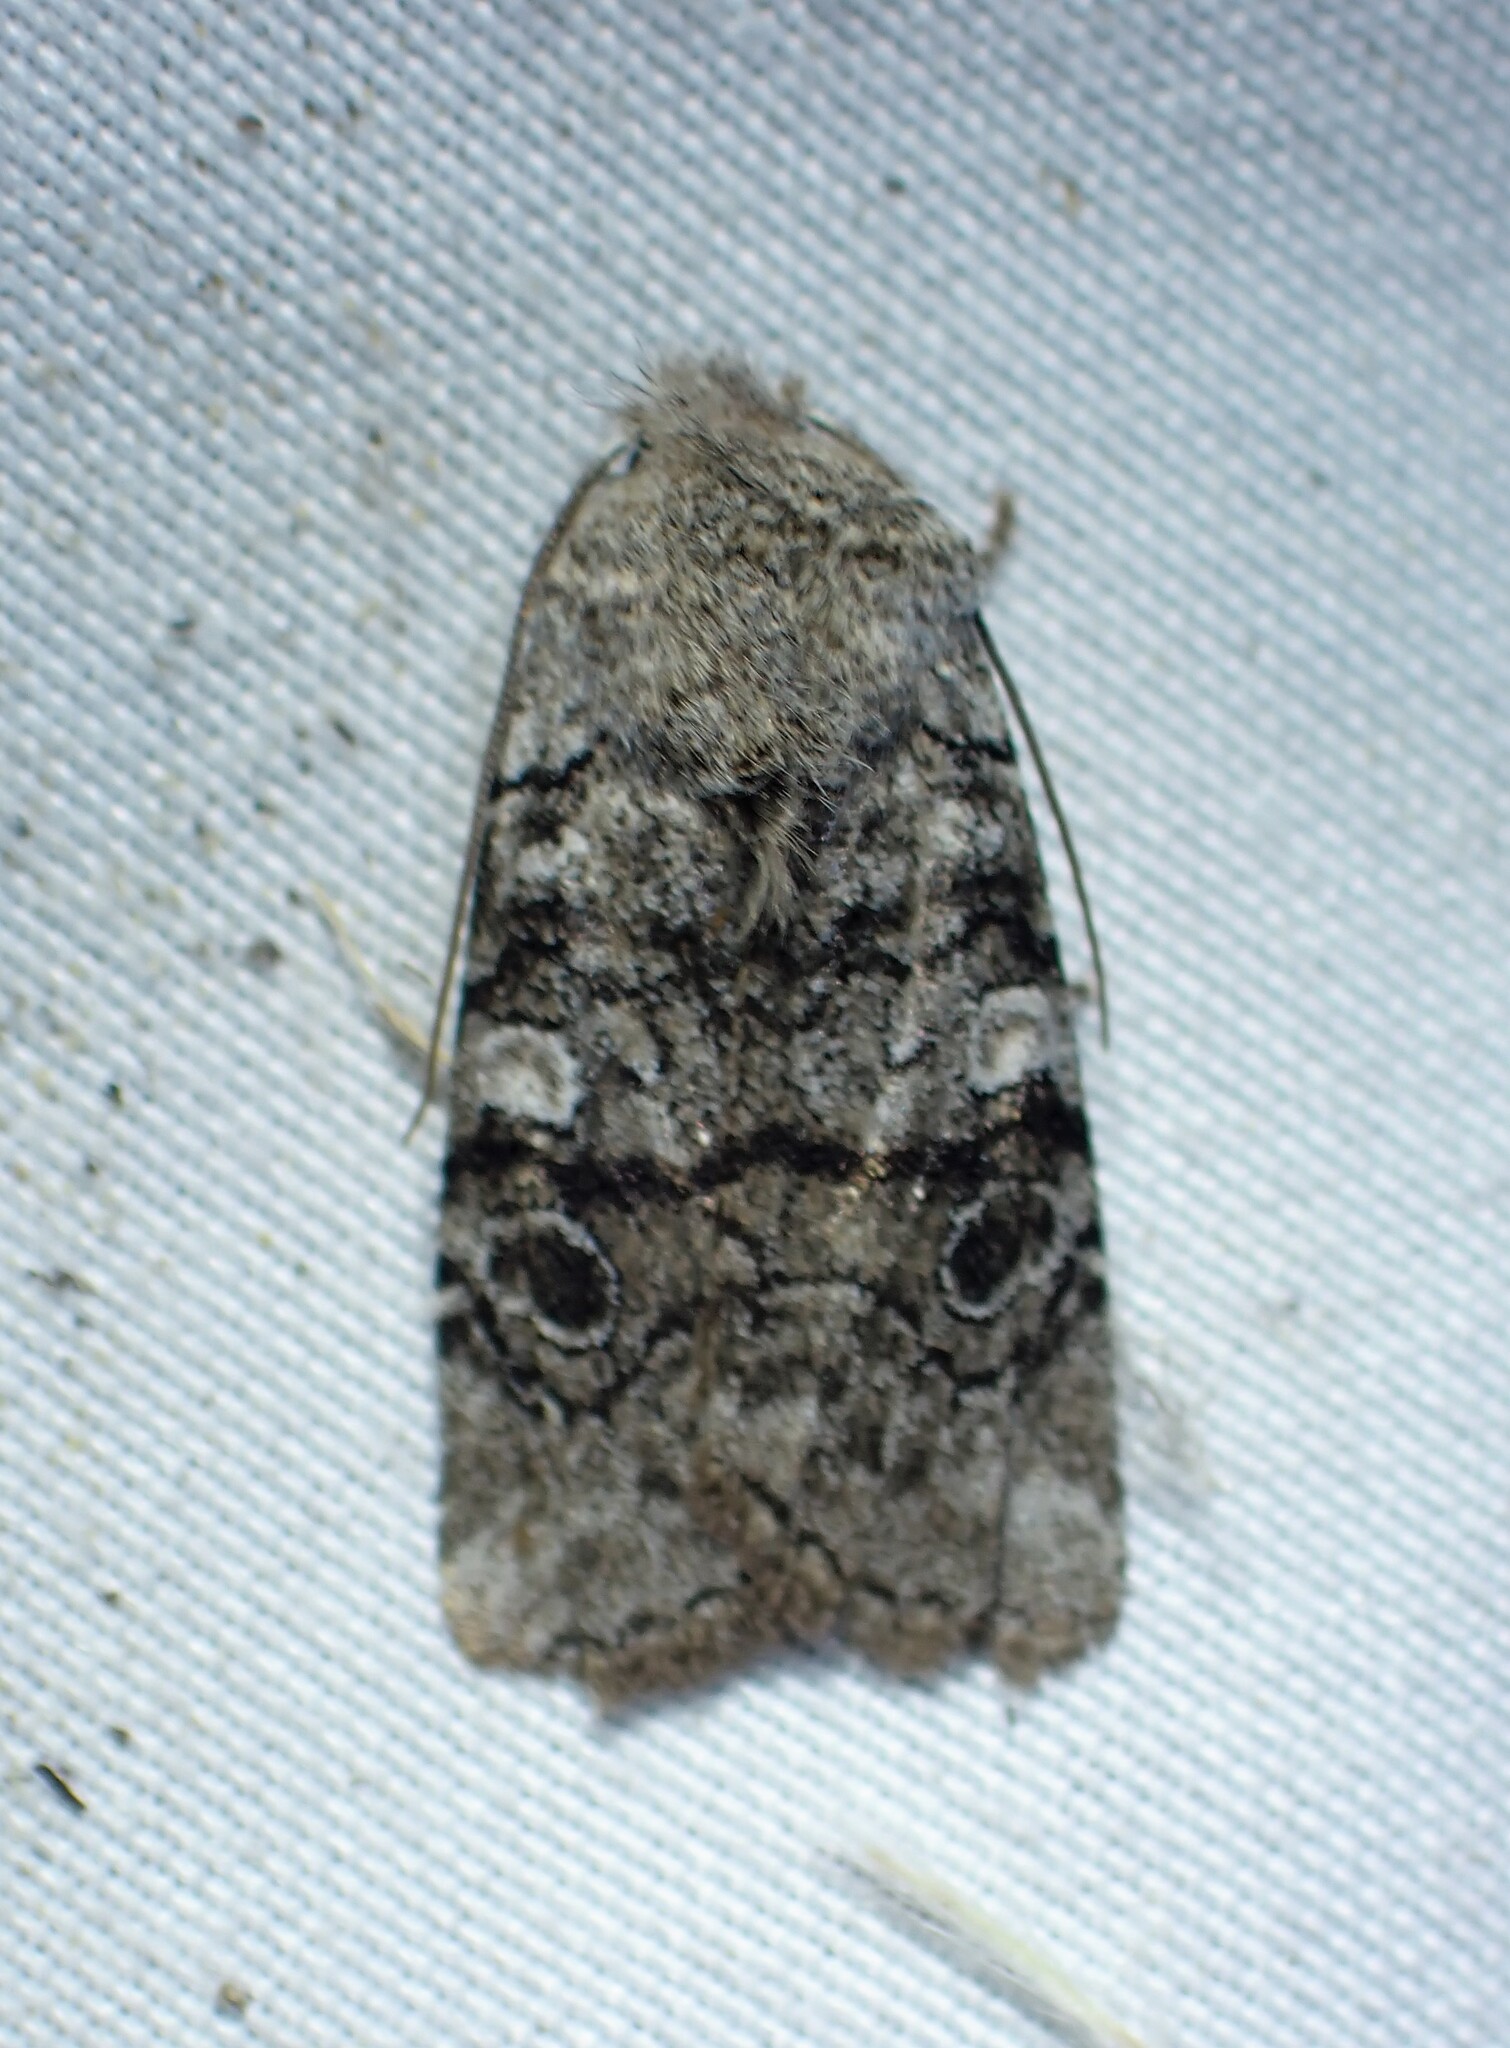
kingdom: Animalia
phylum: Arthropoda
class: Insecta
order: Lepidoptera
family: Noctuidae
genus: Litholomia
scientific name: Litholomia napaea
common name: False pinion moth
